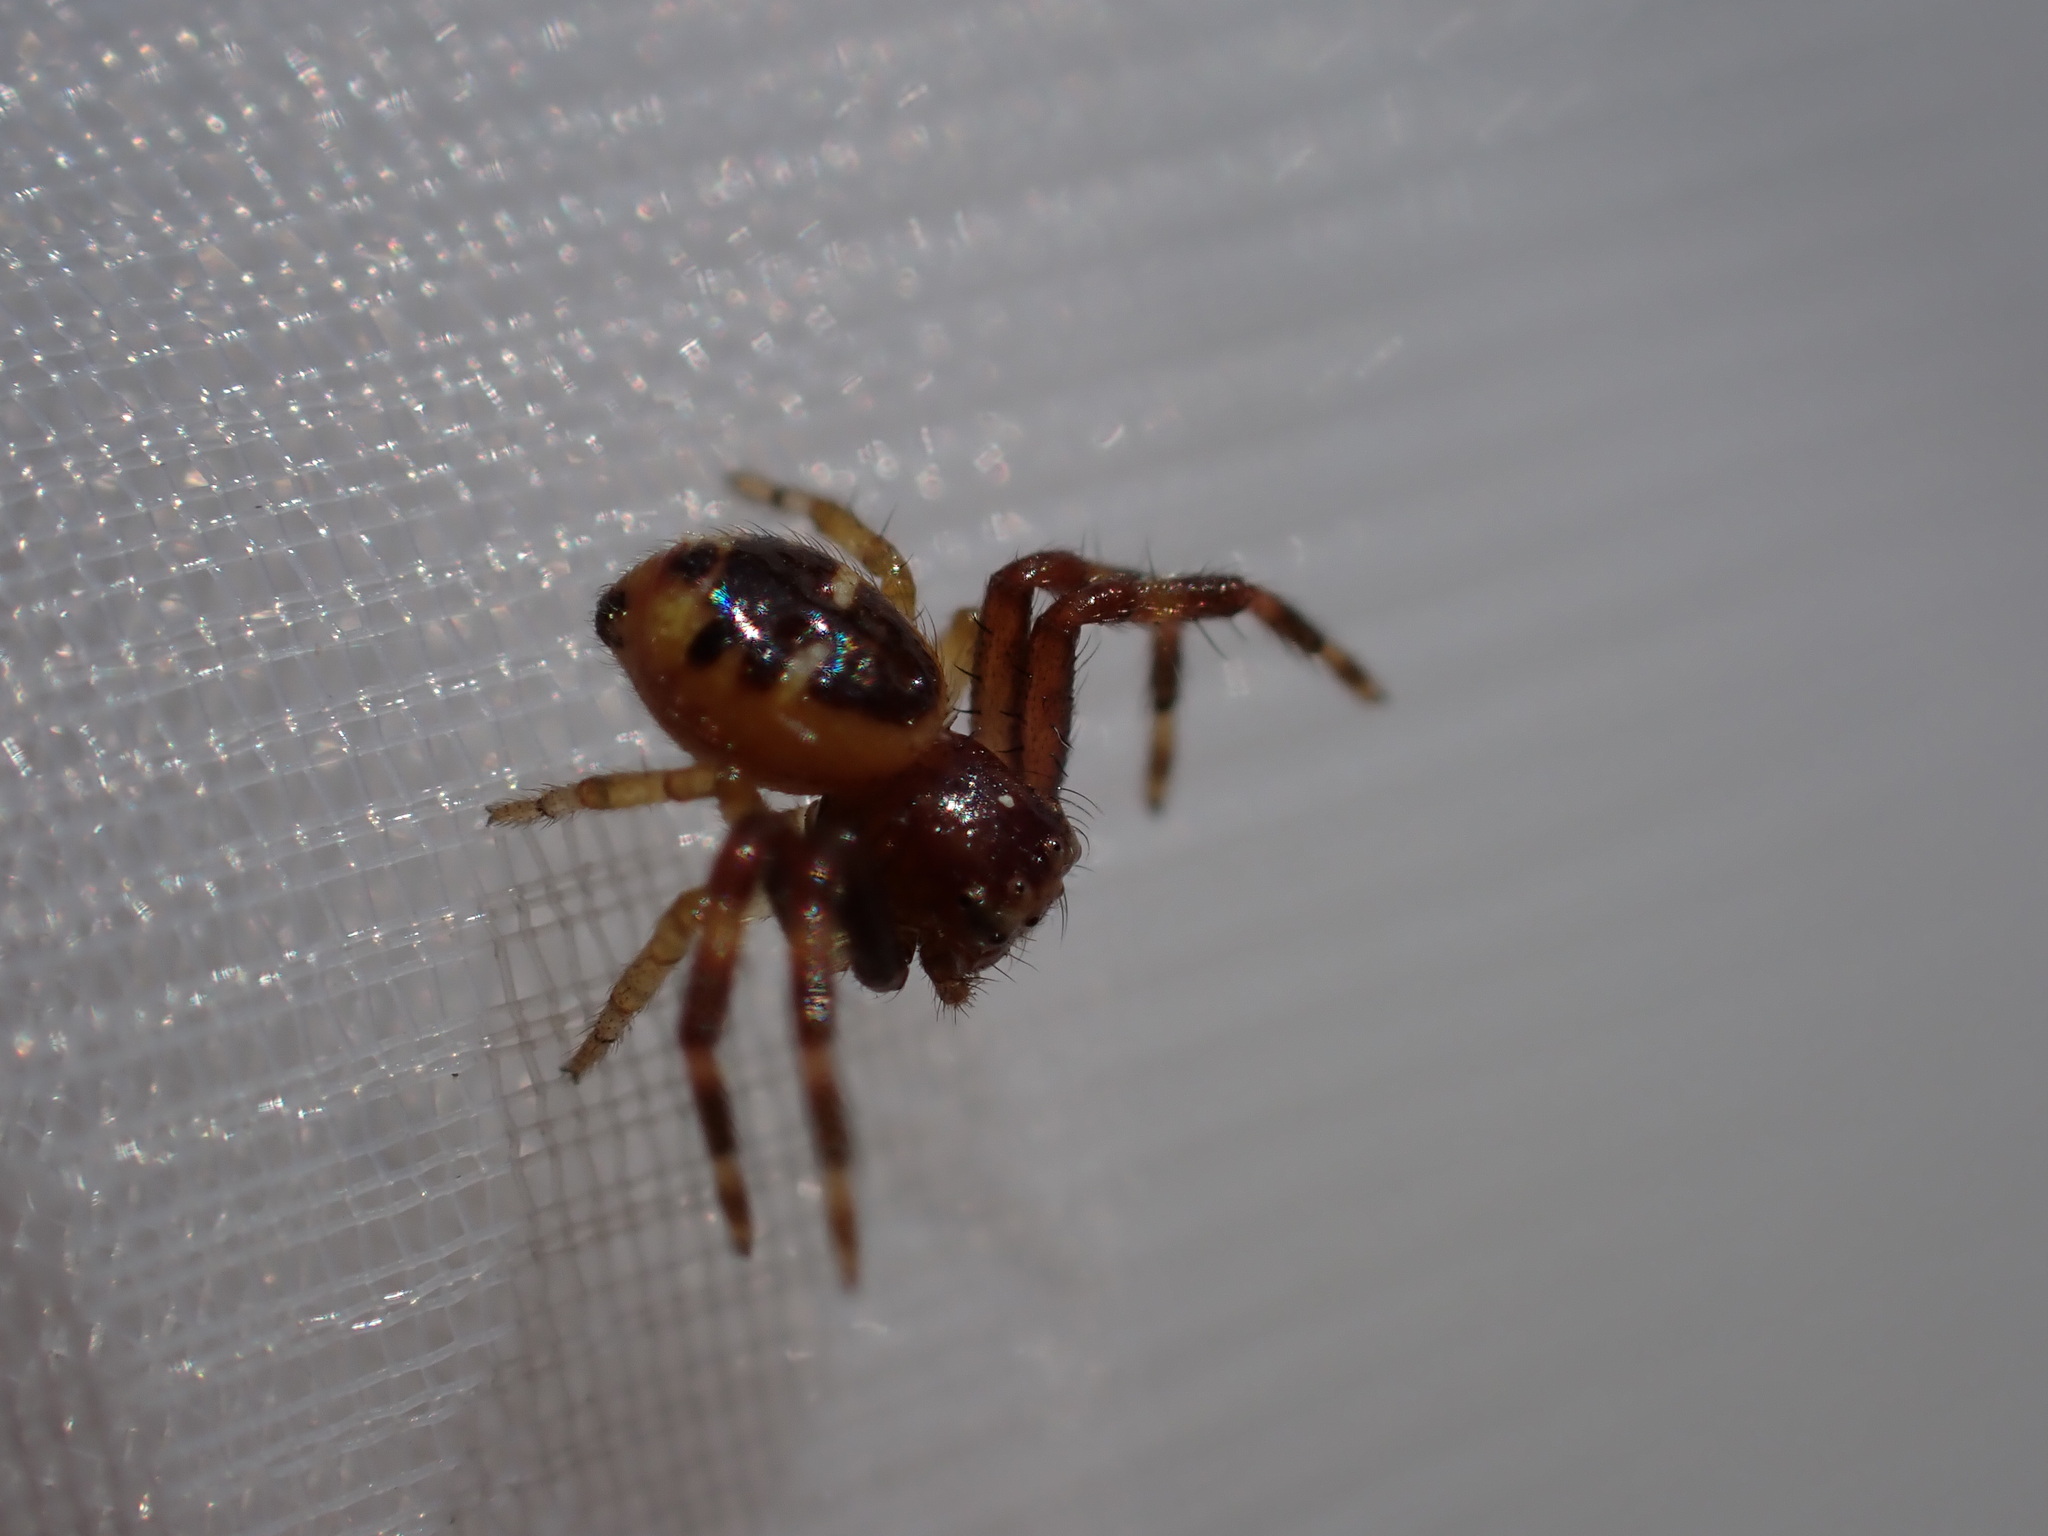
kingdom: Animalia
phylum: Arthropoda
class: Arachnida
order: Araneae
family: Thomisidae
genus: Synema
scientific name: Synema globosum
